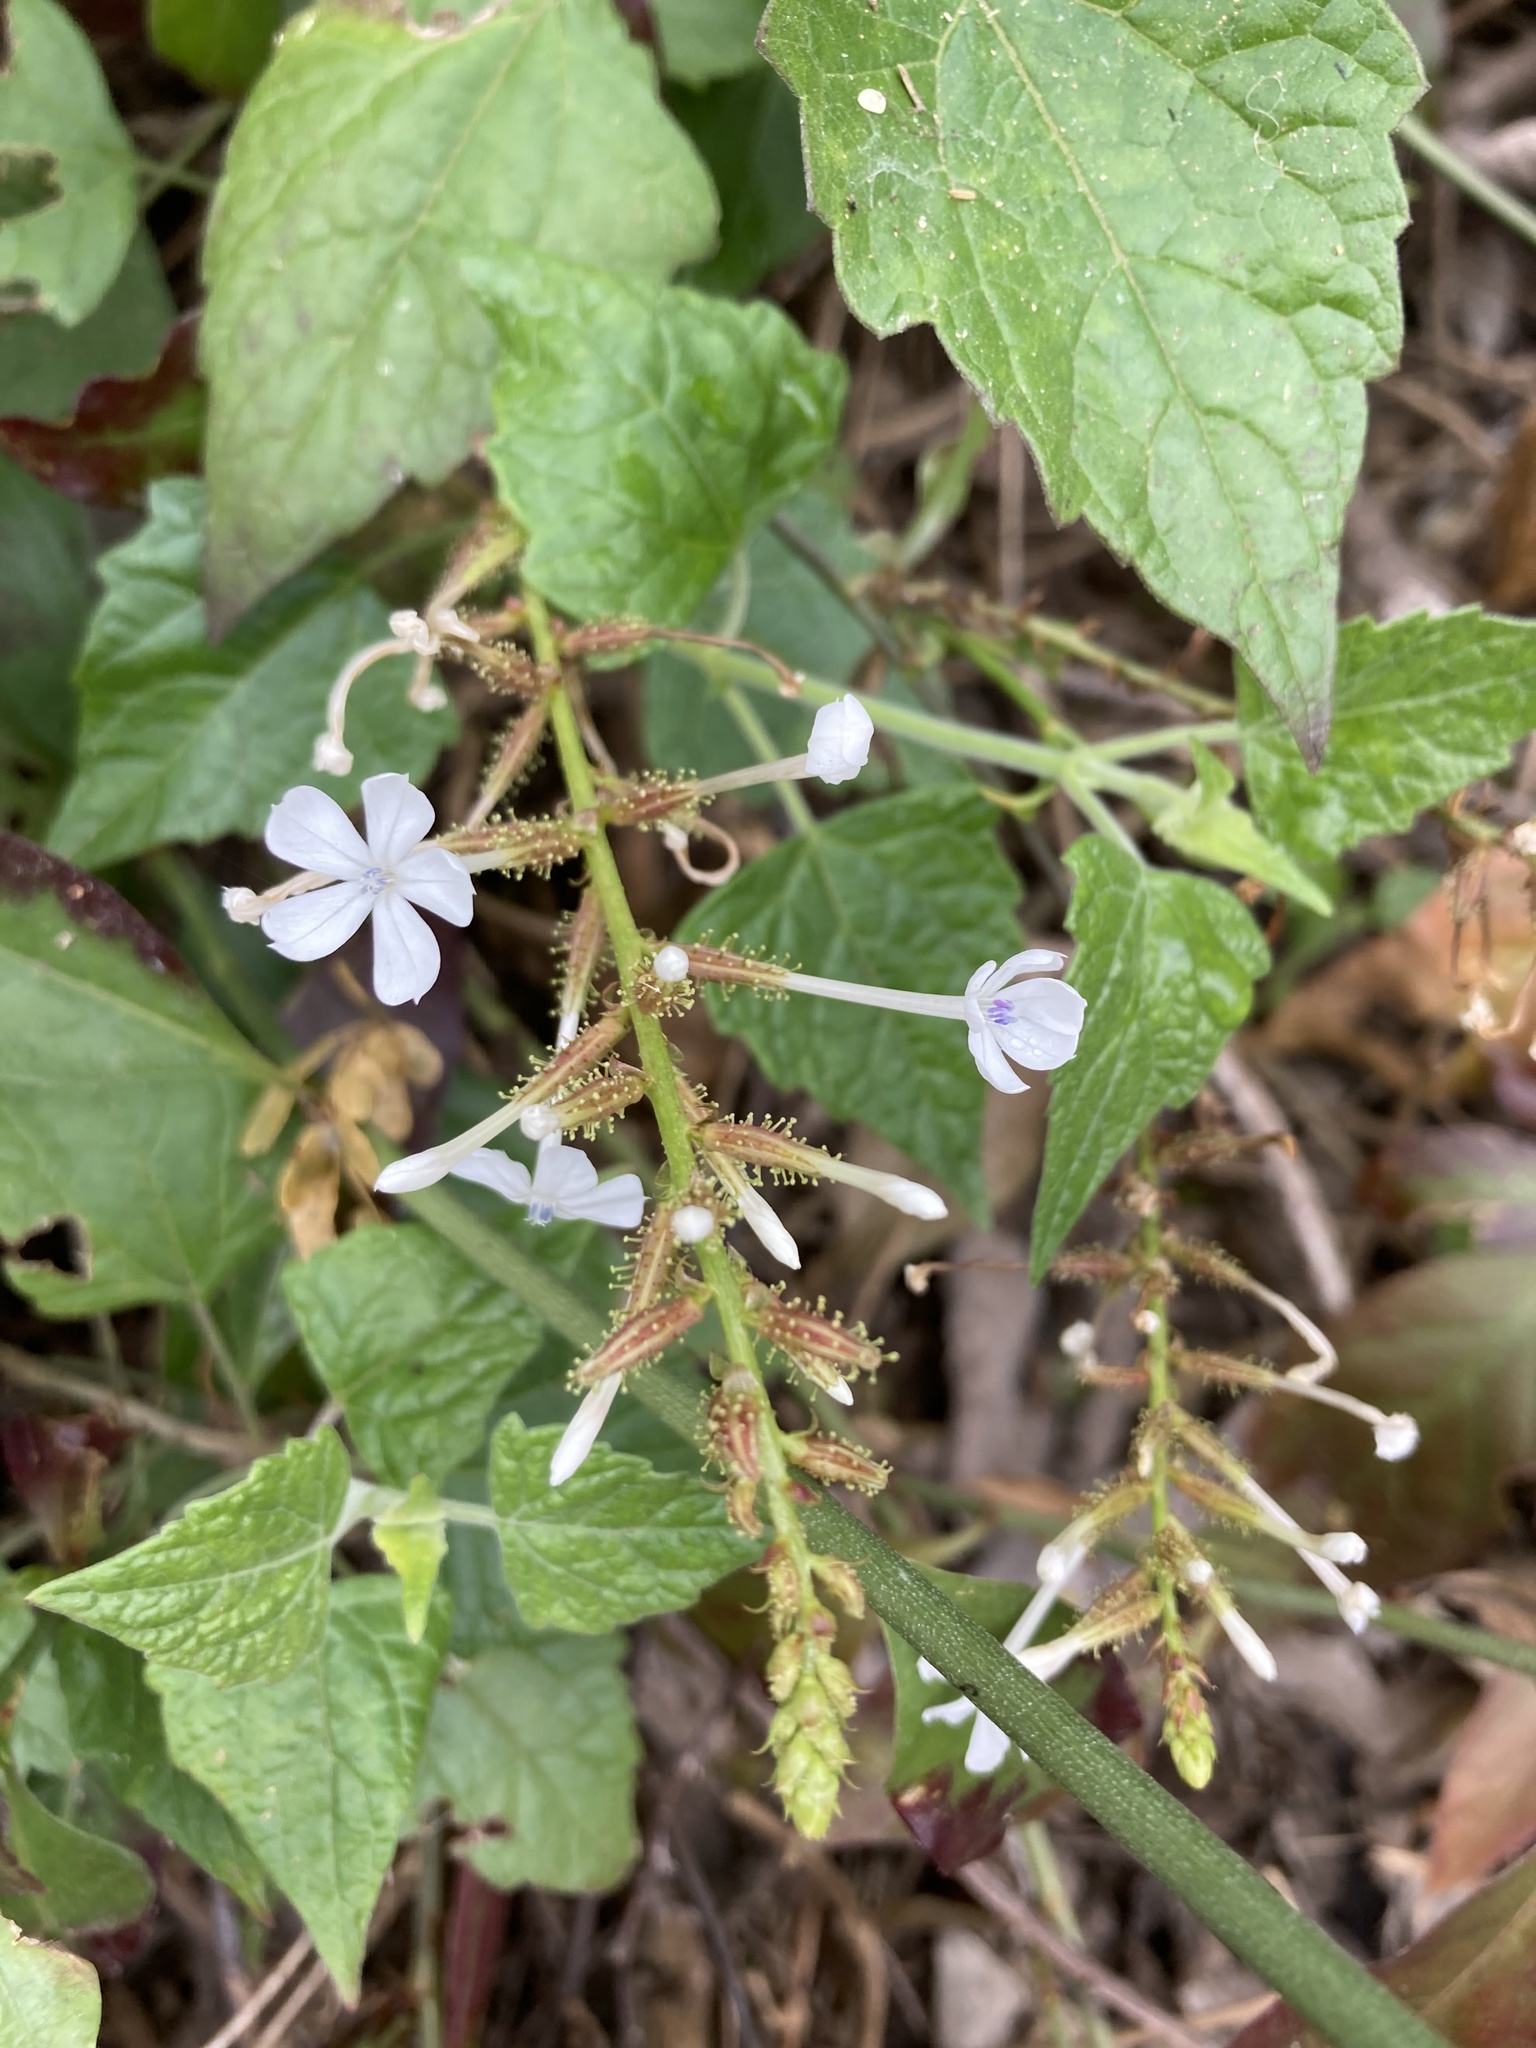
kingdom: Plantae
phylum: Tracheophyta
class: Magnoliopsida
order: Caryophyllales
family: Plumbaginaceae
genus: Plumbago
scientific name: Plumbago zeylanica
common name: Doctorbush
